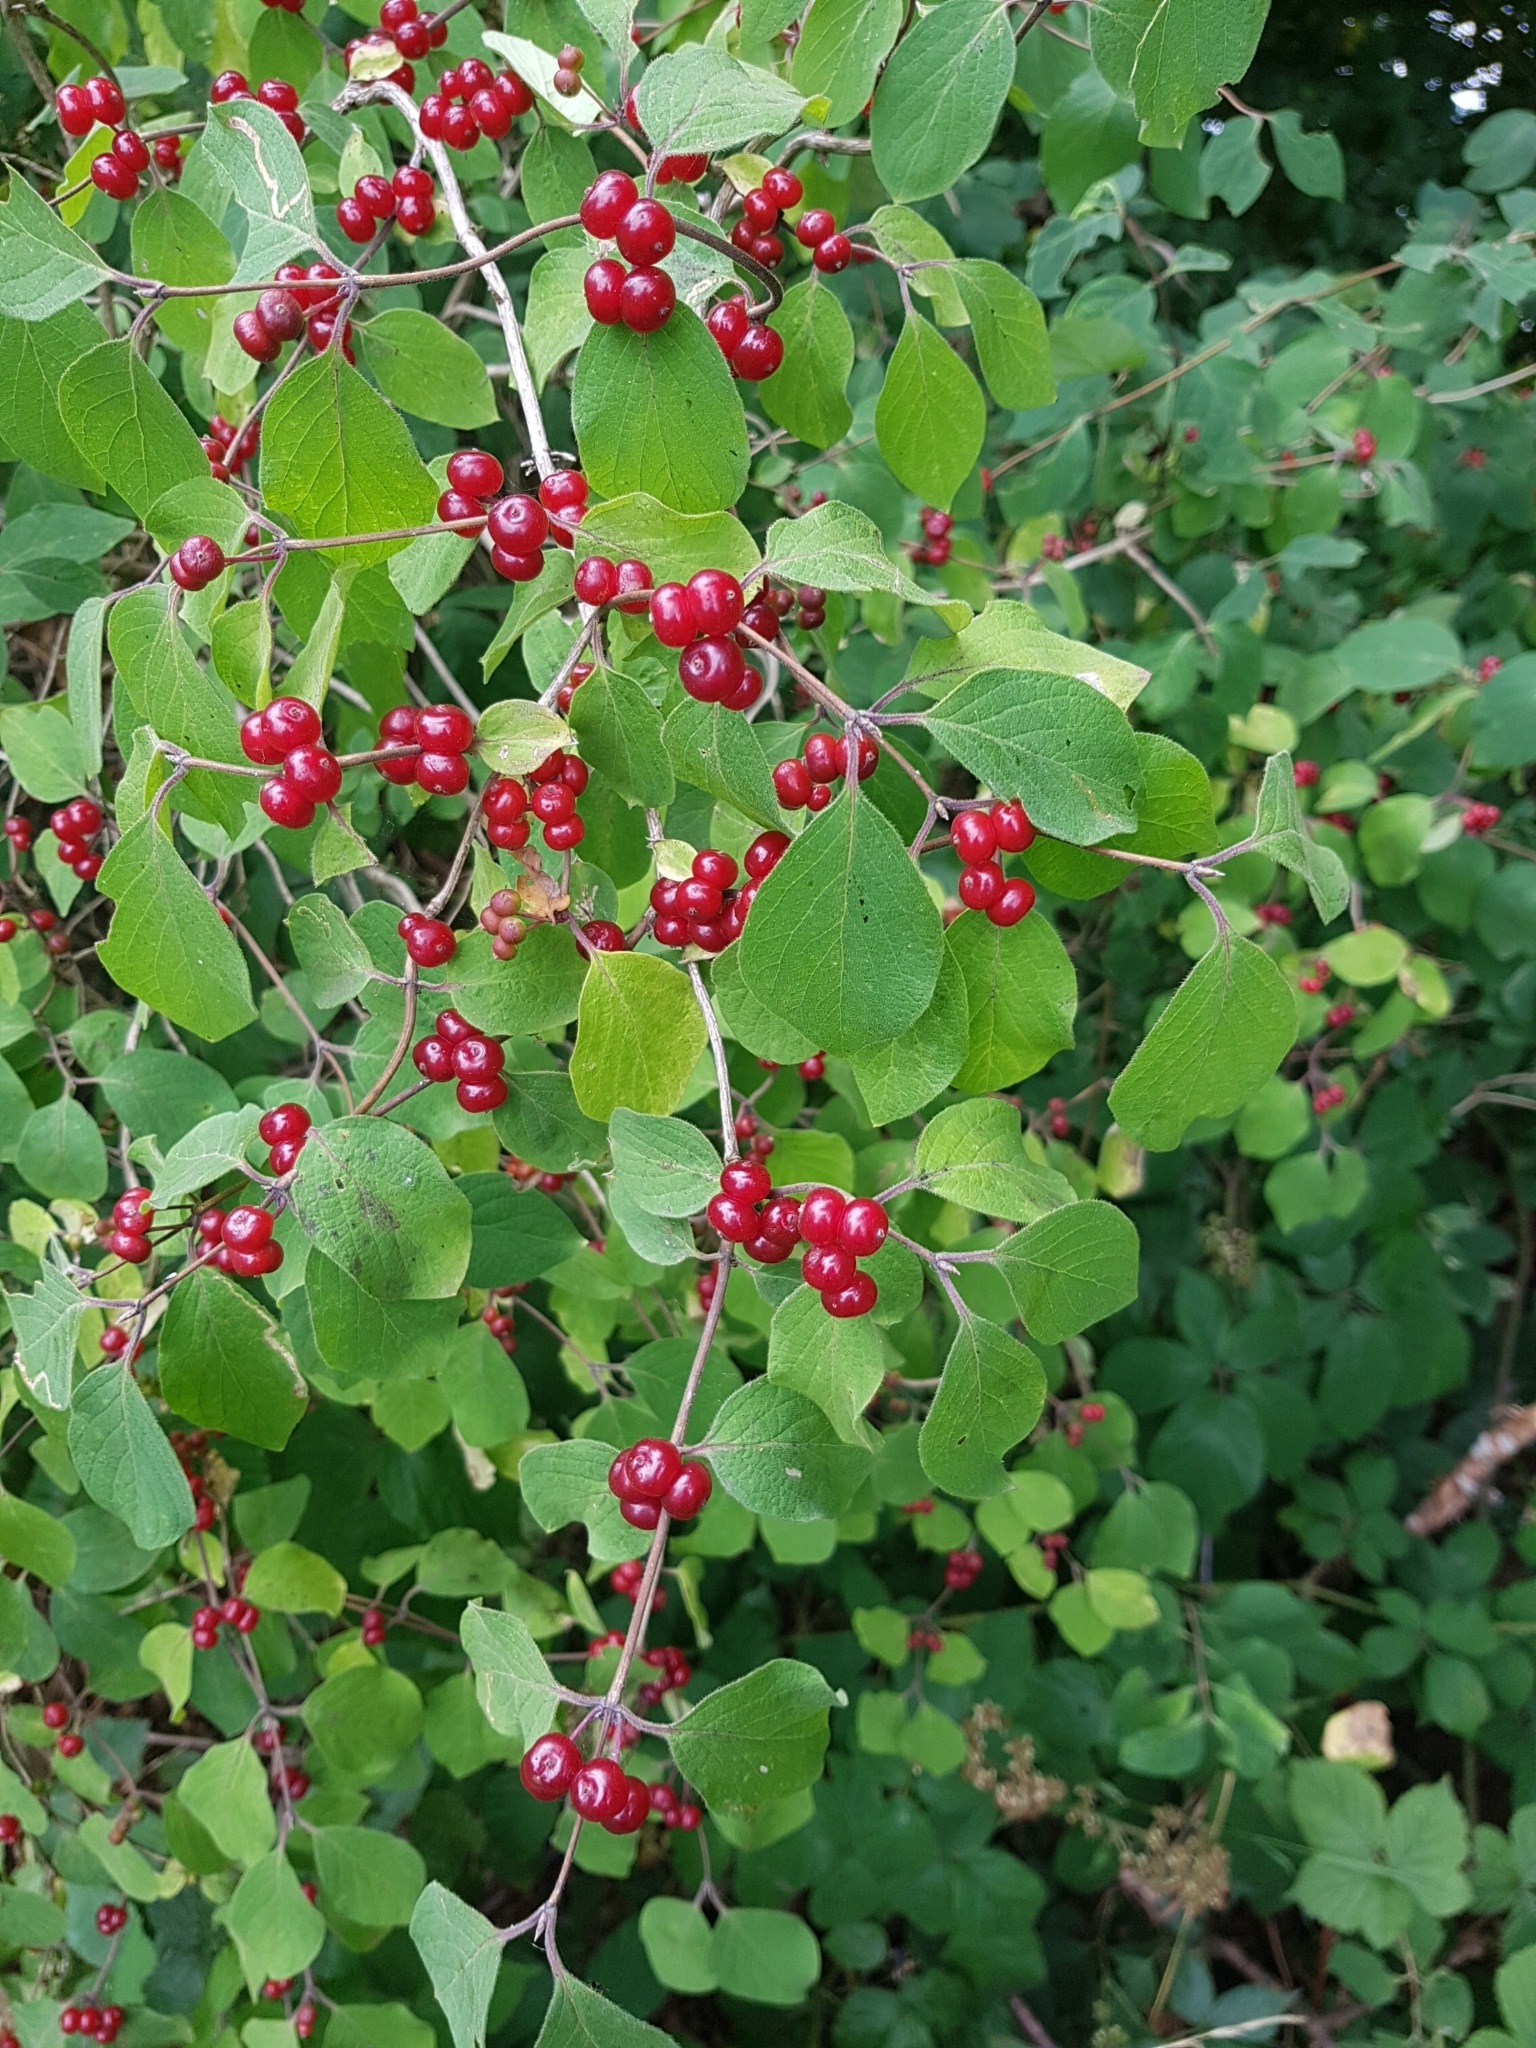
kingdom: Plantae
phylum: Tracheophyta
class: Magnoliopsida
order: Dipsacales
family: Caprifoliaceae
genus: Lonicera
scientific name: Lonicera xylosteum
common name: Fly honeysuckle
